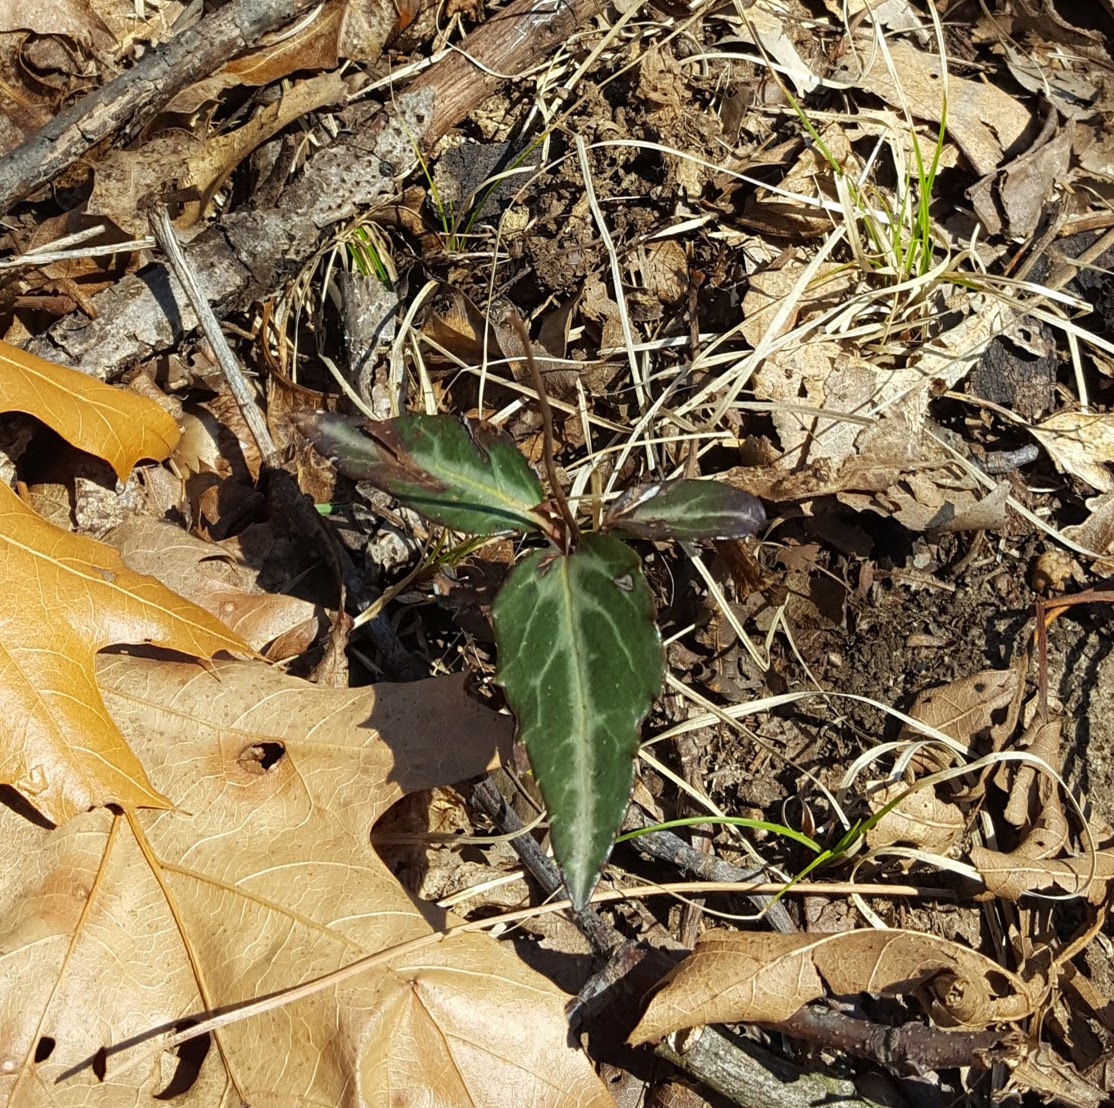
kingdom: Plantae
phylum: Tracheophyta
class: Magnoliopsida
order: Ericales
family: Ericaceae
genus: Chimaphila
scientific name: Chimaphila maculata
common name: Spotted pipsissewa
